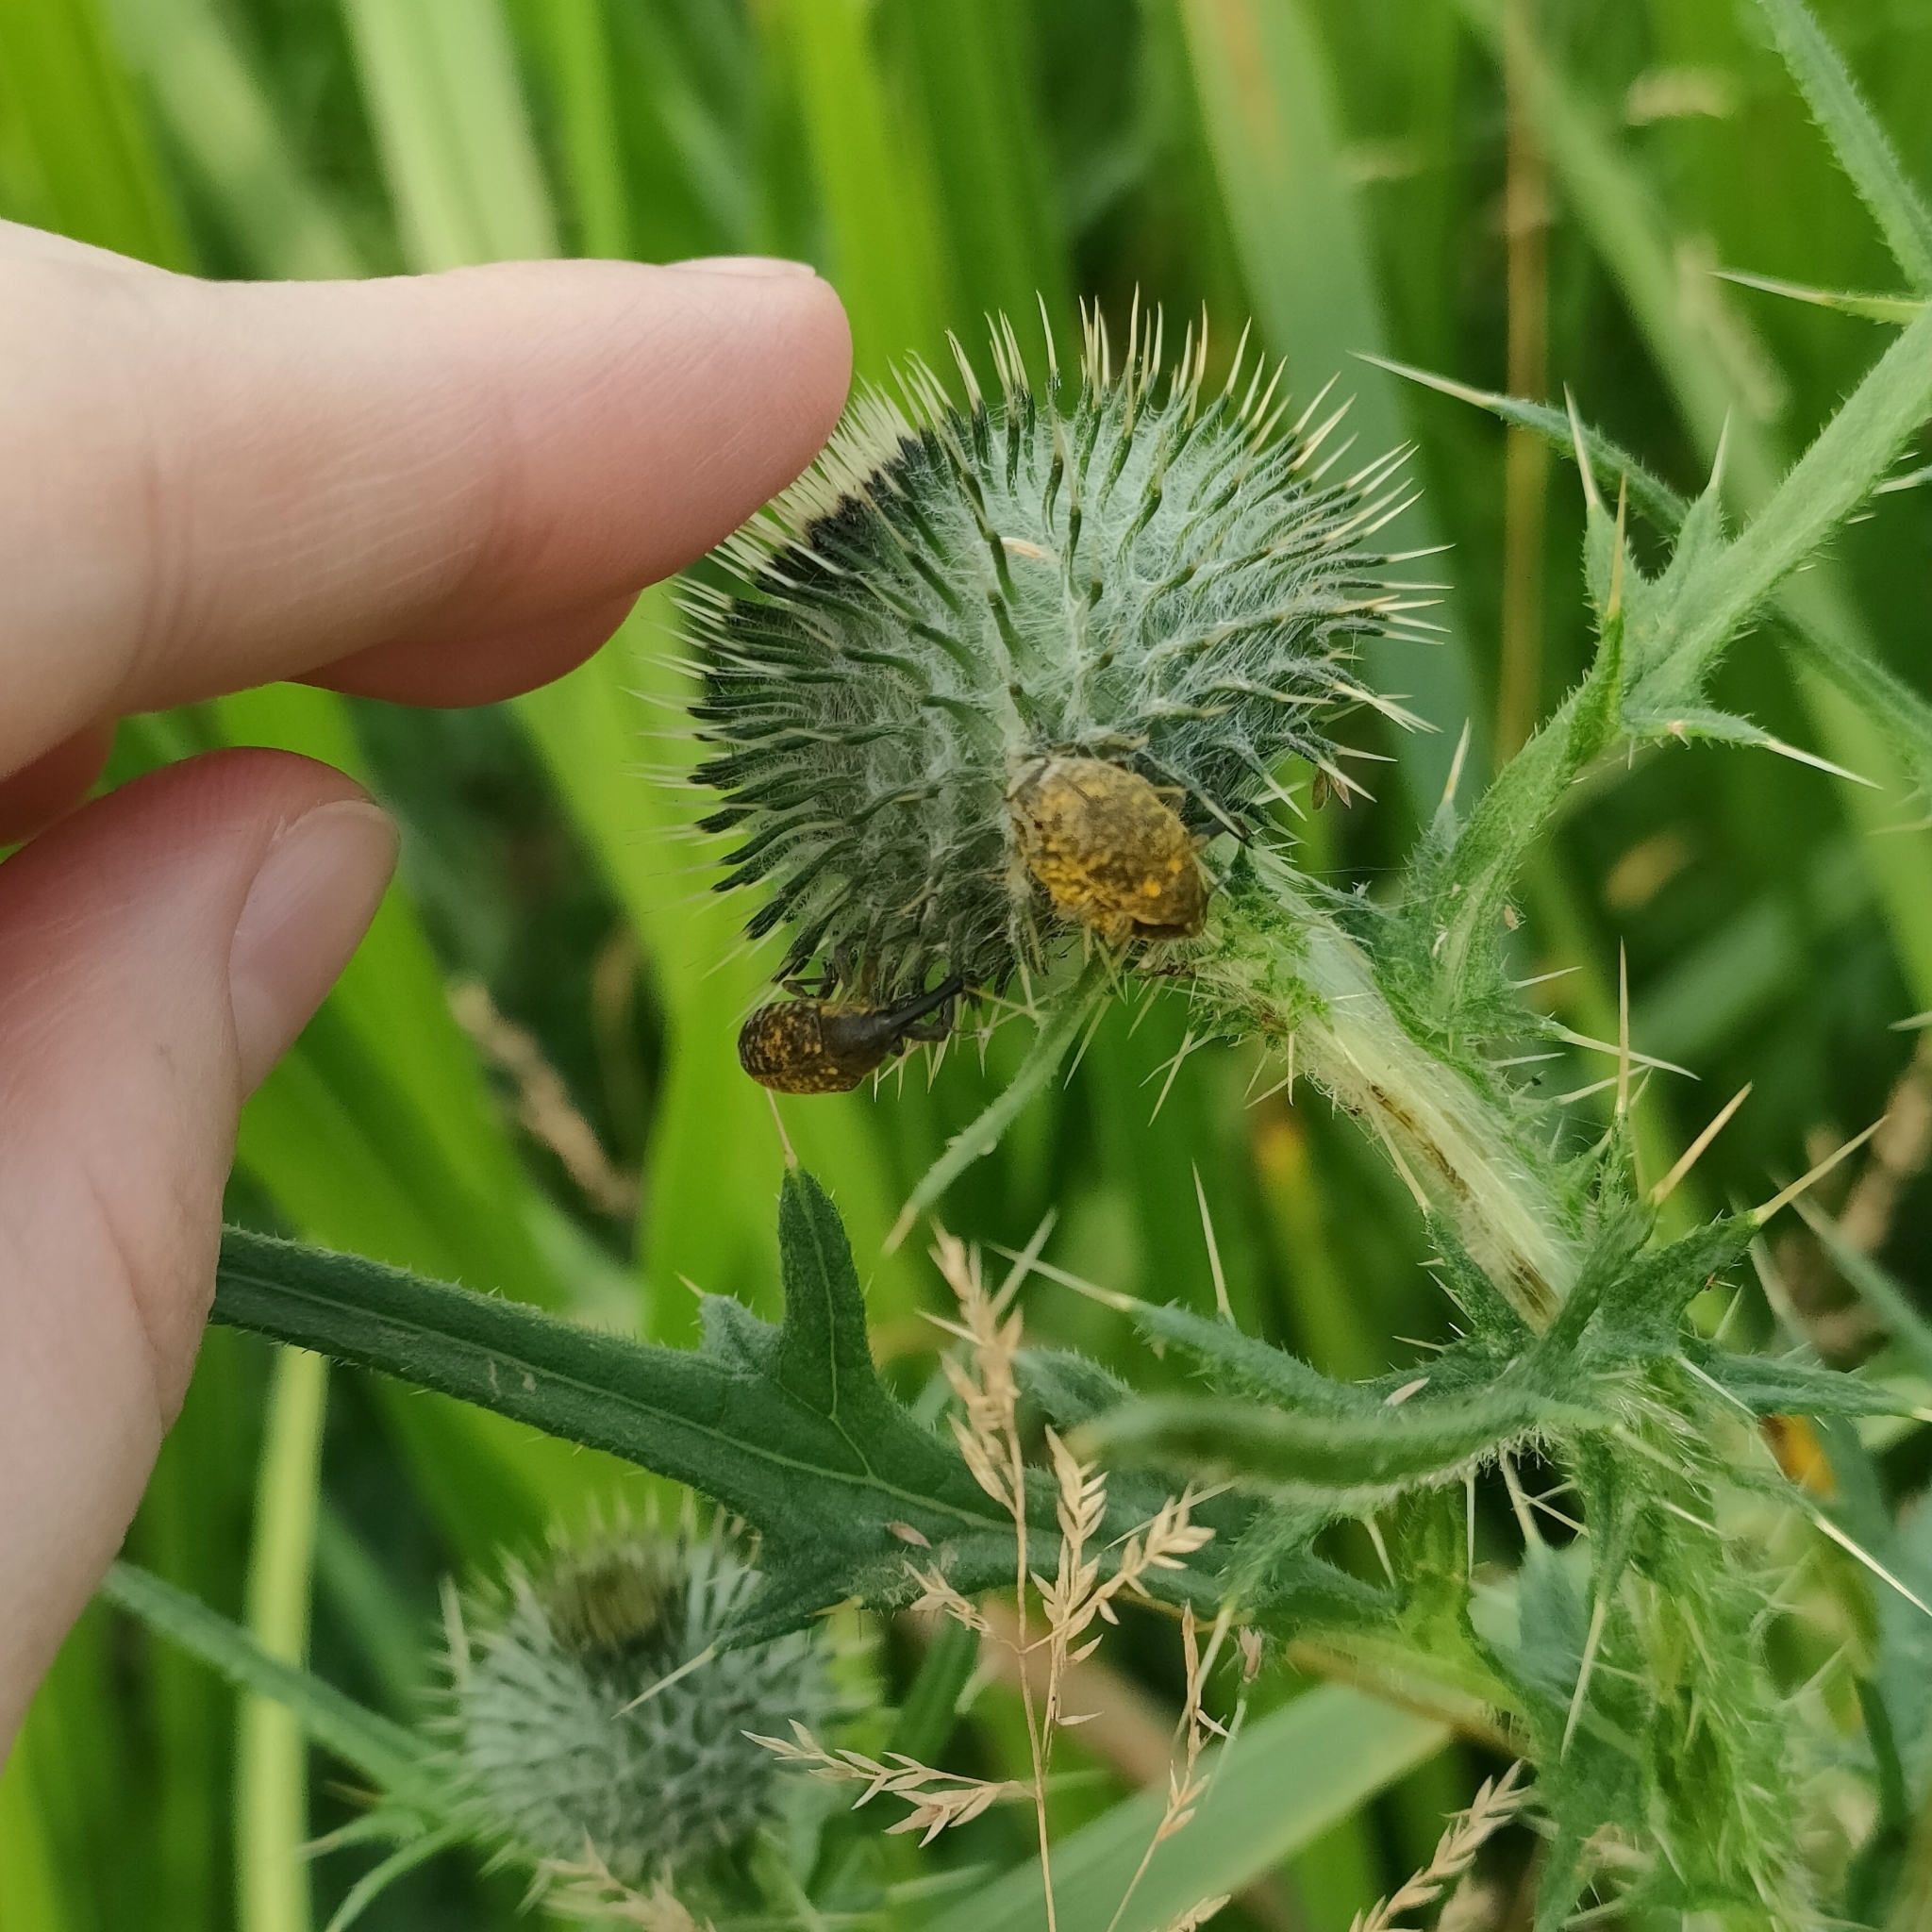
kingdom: Animalia
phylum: Arthropoda
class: Insecta
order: Coleoptera
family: Curculionidae
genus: Larinus
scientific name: Larinus sturnus
